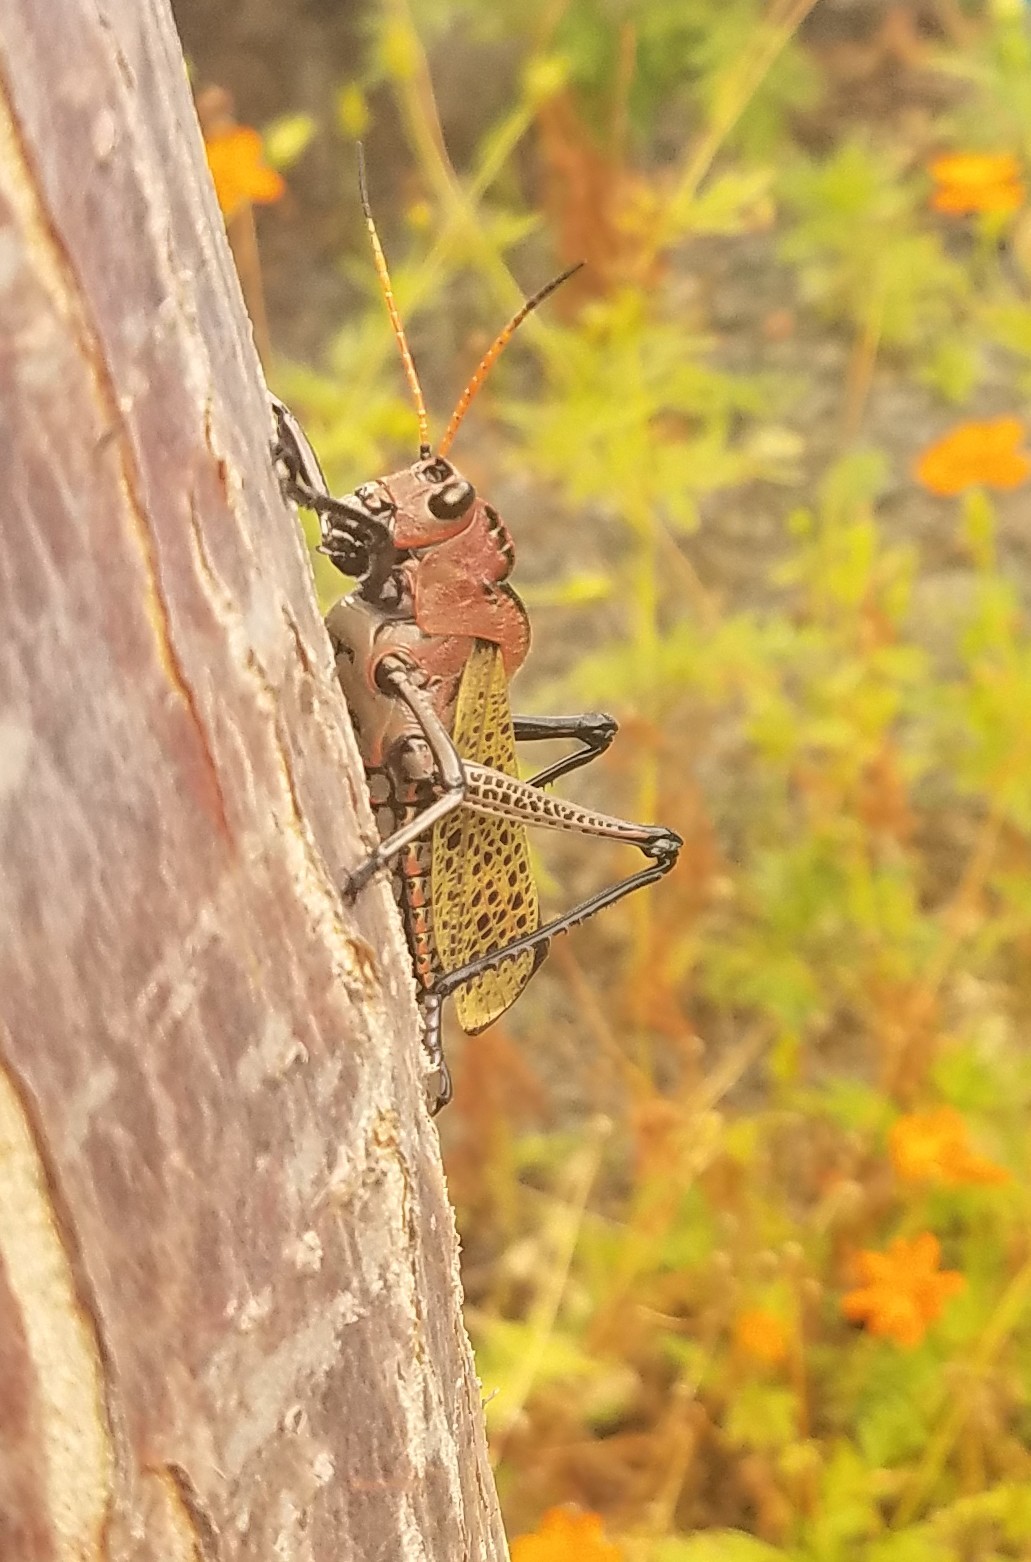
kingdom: Animalia
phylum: Arthropoda
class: Insecta
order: Orthoptera
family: Romaleidae
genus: Romalea
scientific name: Romalea
